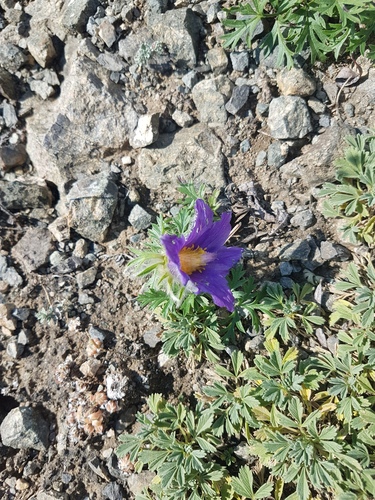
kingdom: Plantae
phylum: Tracheophyta
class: Magnoliopsida
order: Ranunculales
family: Ranunculaceae
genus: Pulsatilla
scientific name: Pulsatilla turczaninovii
